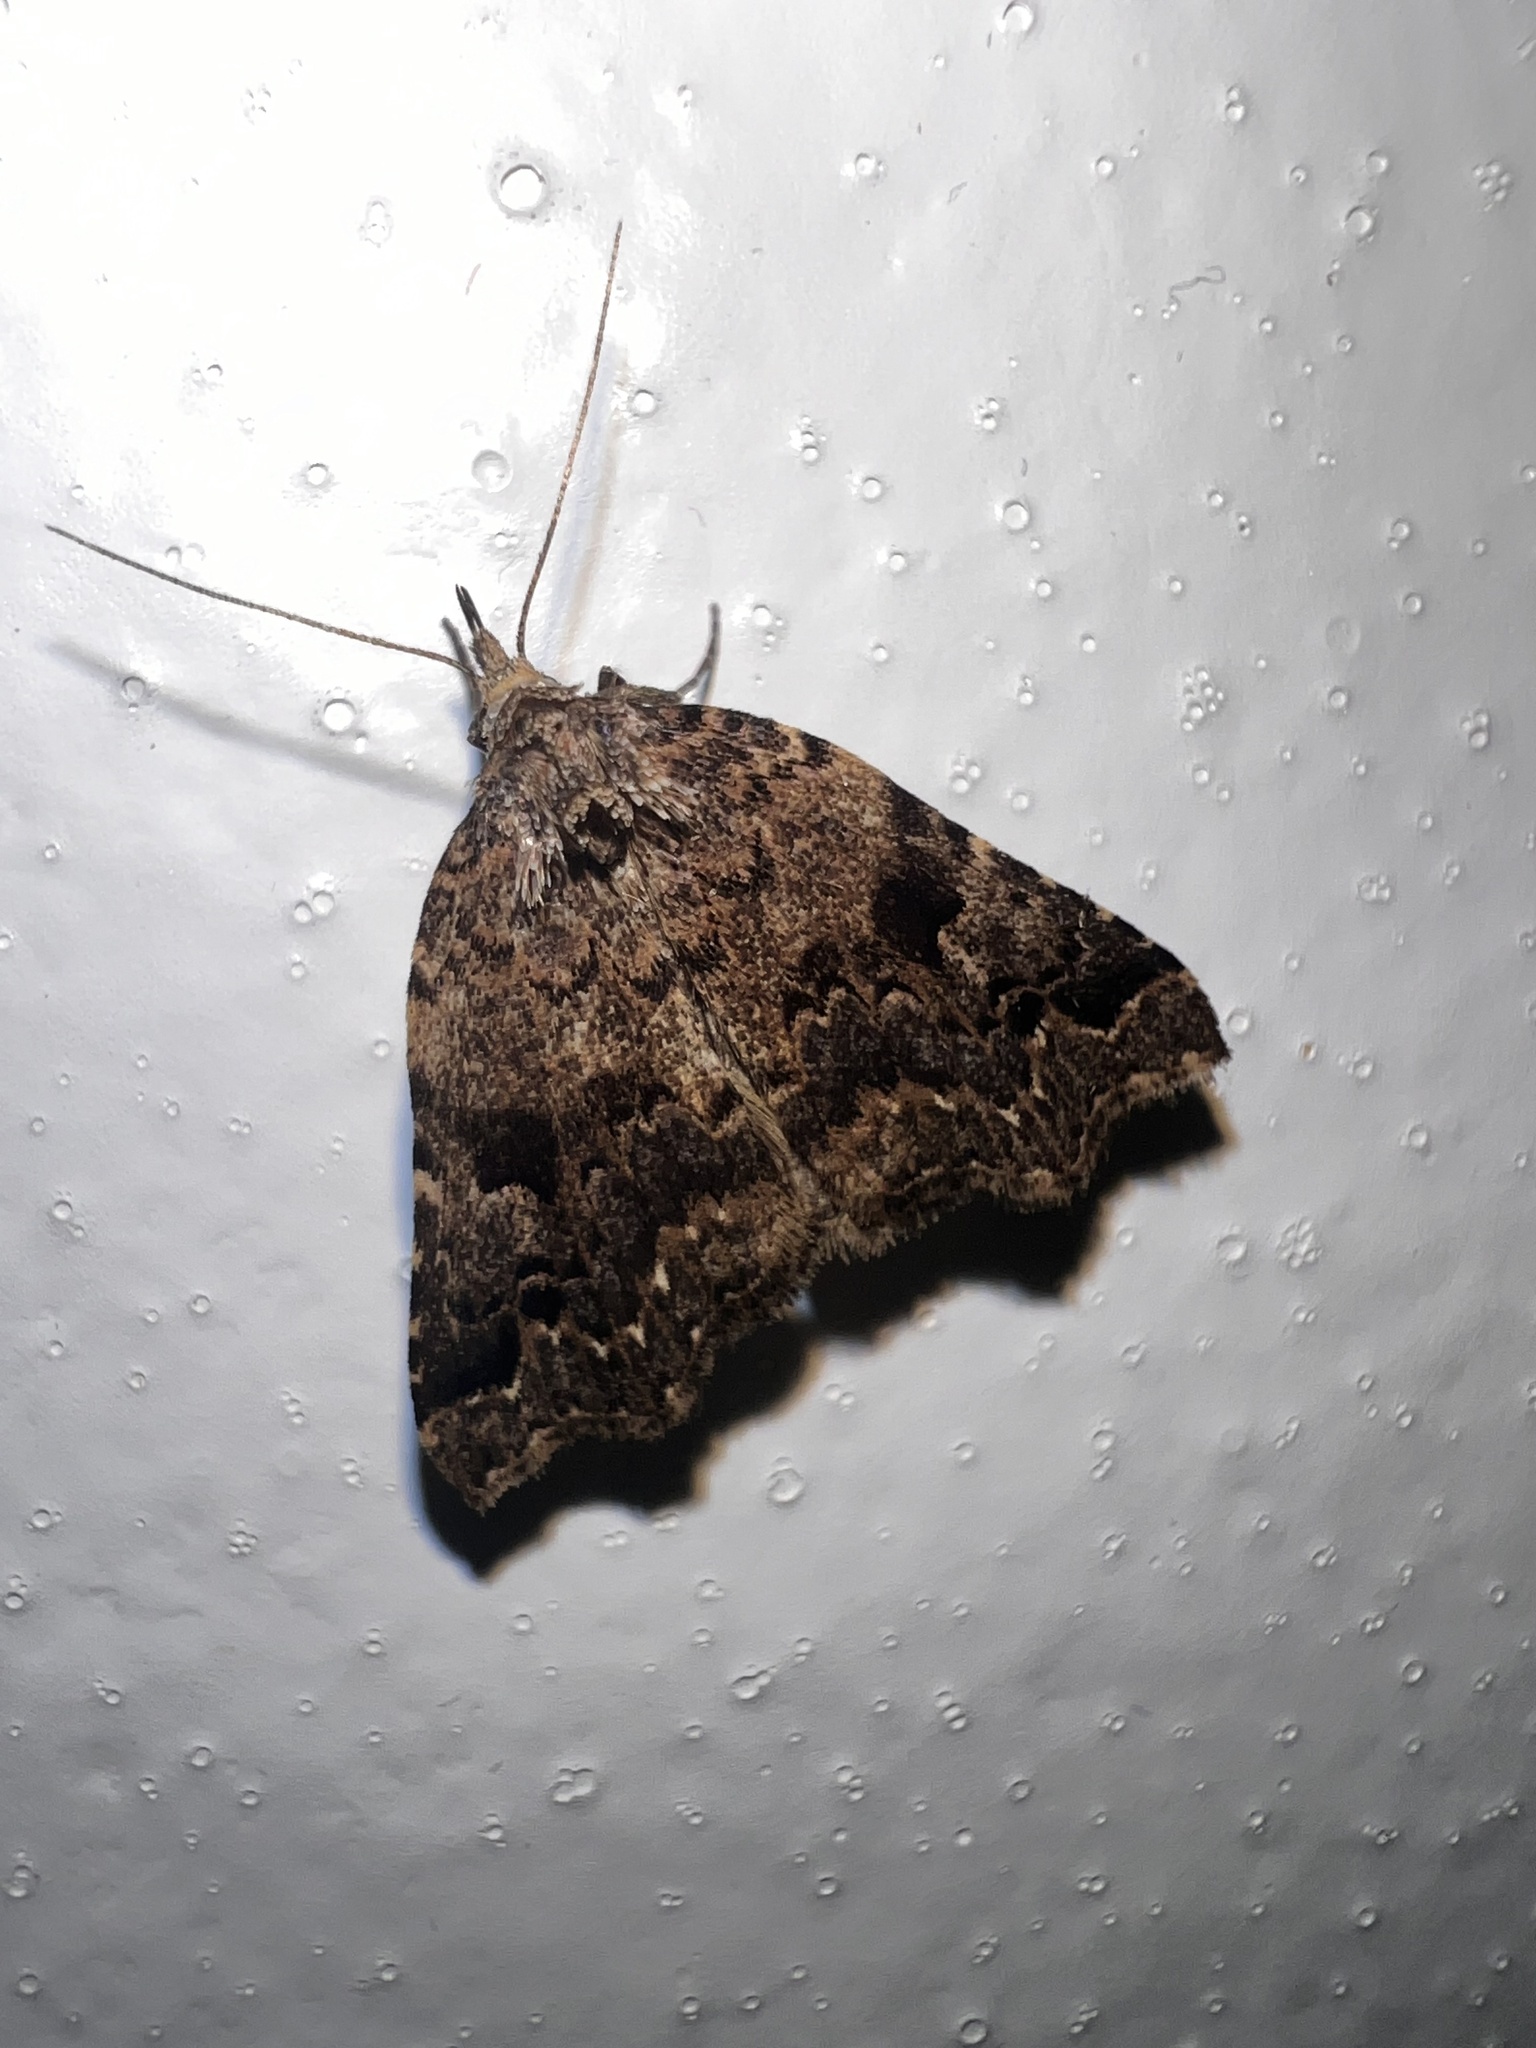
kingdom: Animalia
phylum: Arthropoda
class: Insecta
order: Lepidoptera
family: Erebidae
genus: Trigonistis
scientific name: Trigonistis
